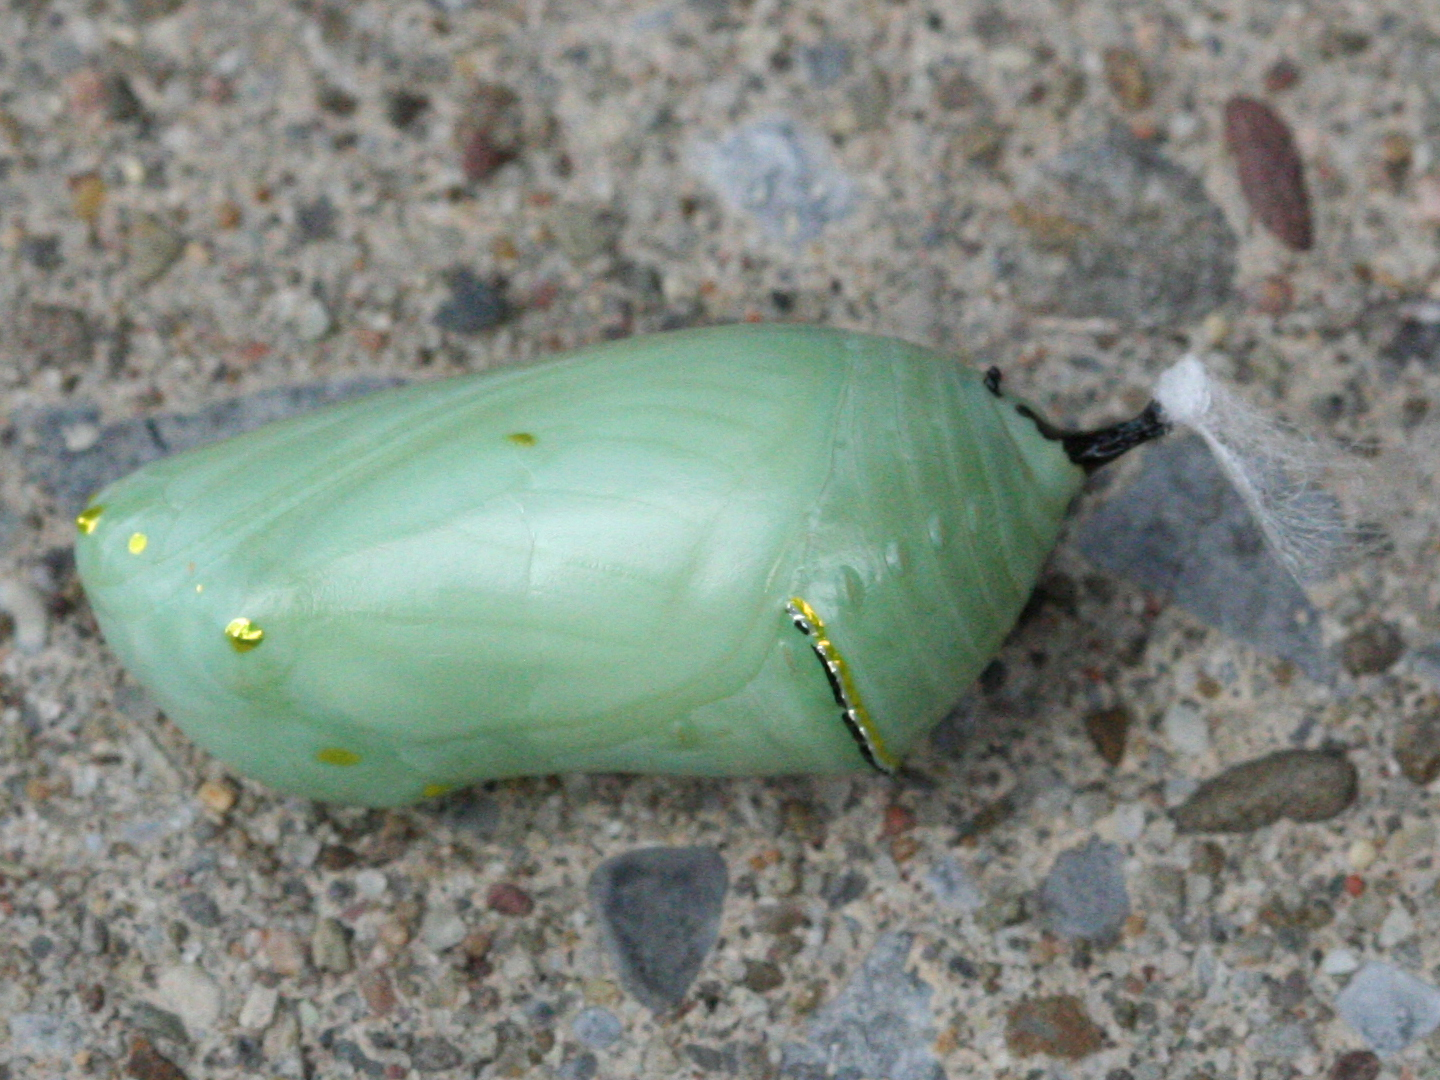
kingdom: Animalia
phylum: Arthropoda
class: Insecta
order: Lepidoptera
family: Nymphalidae
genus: Danaus
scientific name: Danaus plexippus
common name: Monarch
